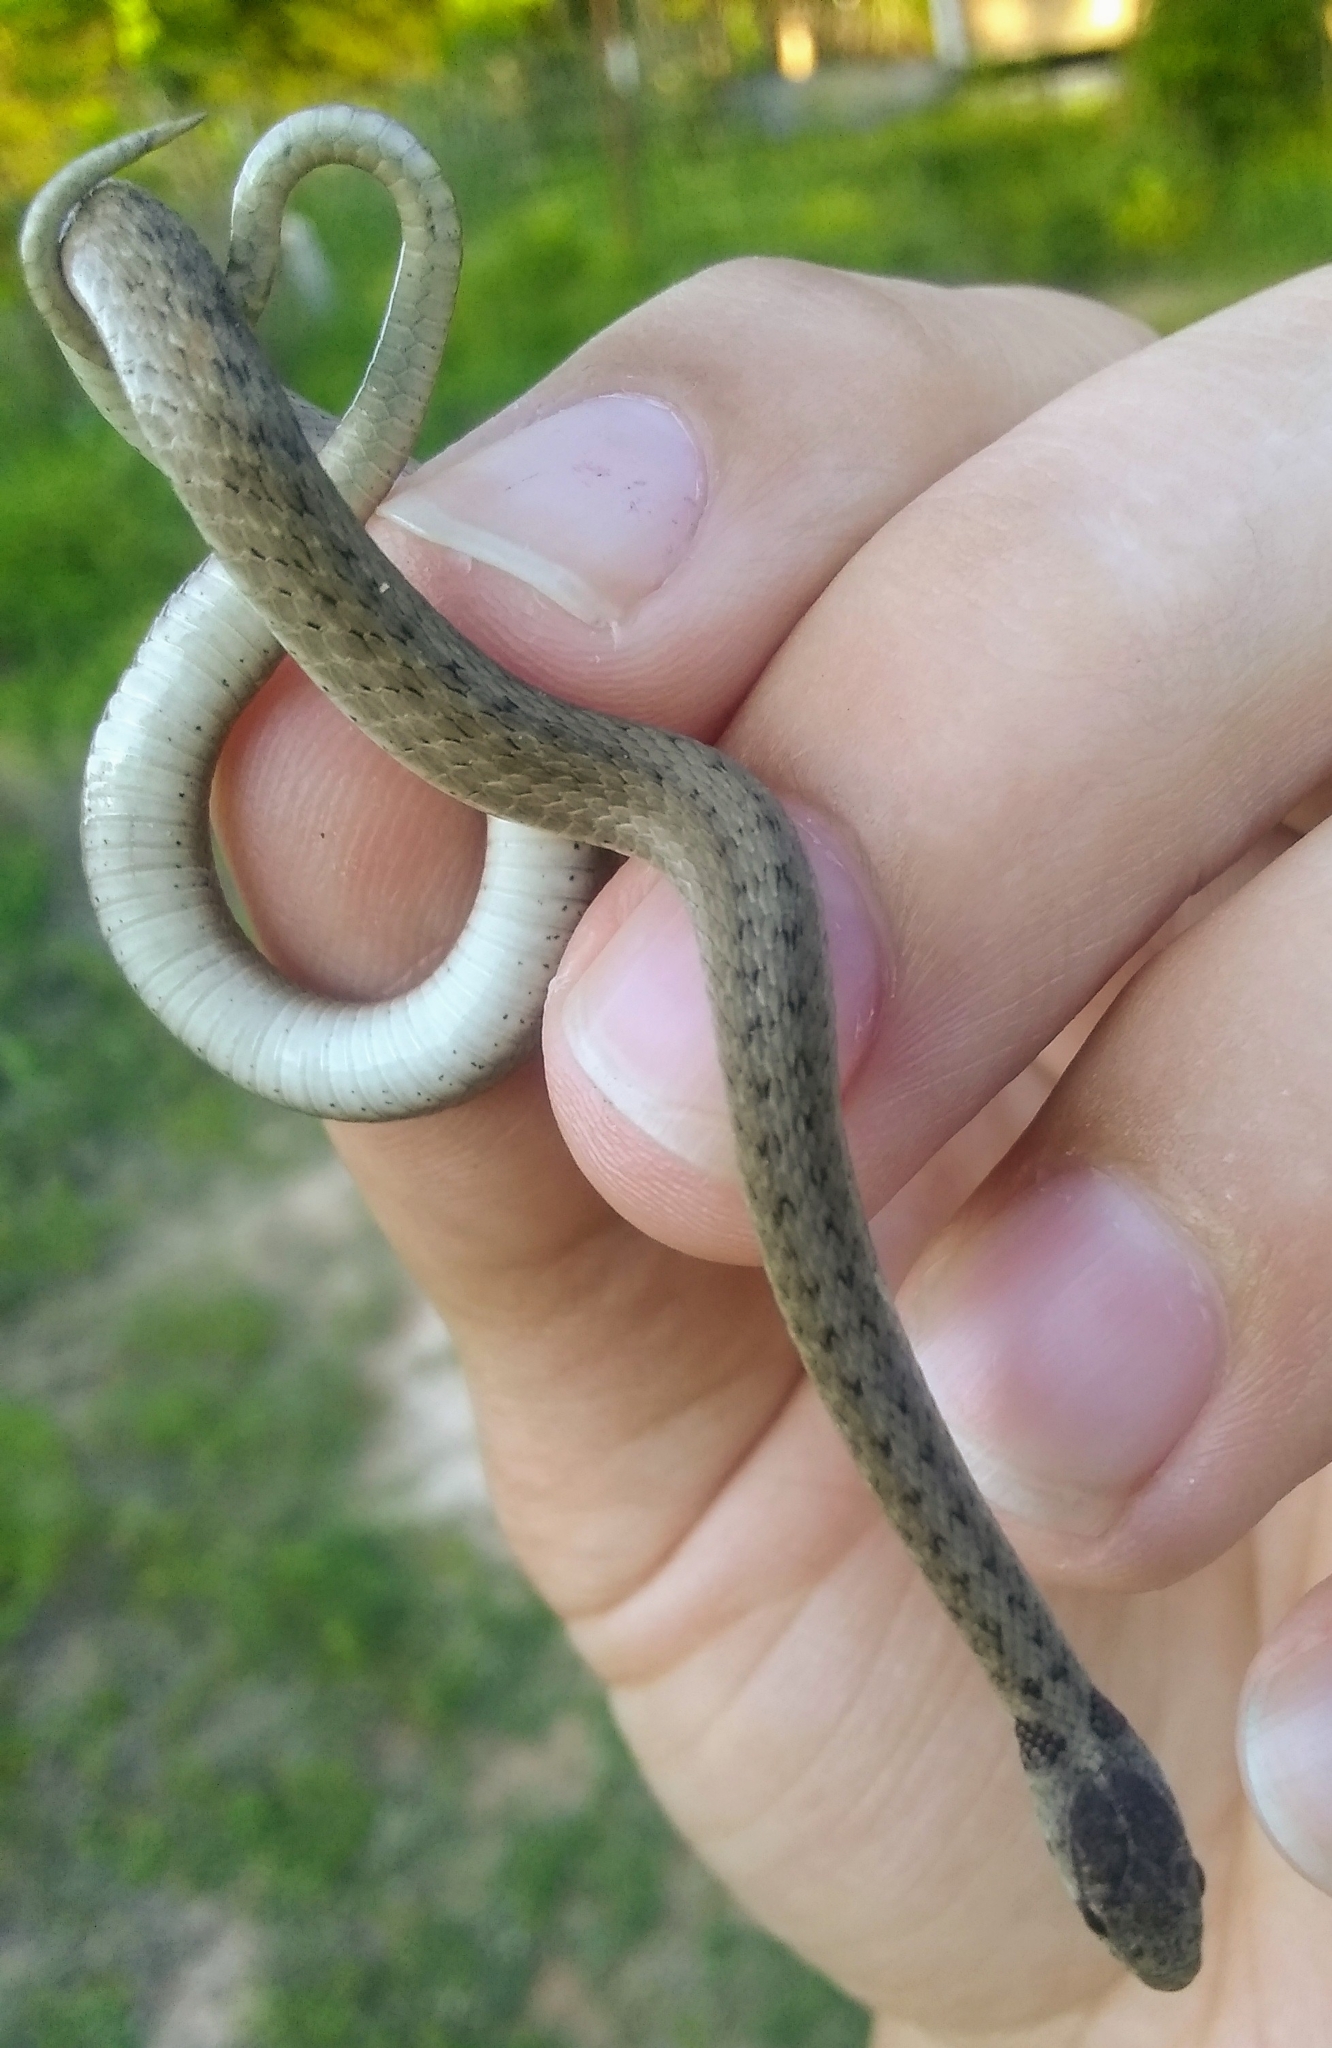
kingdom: Animalia
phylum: Chordata
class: Squamata
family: Colubridae
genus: Storeria
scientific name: Storeria dekayi
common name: (dekay’s) brown snake
